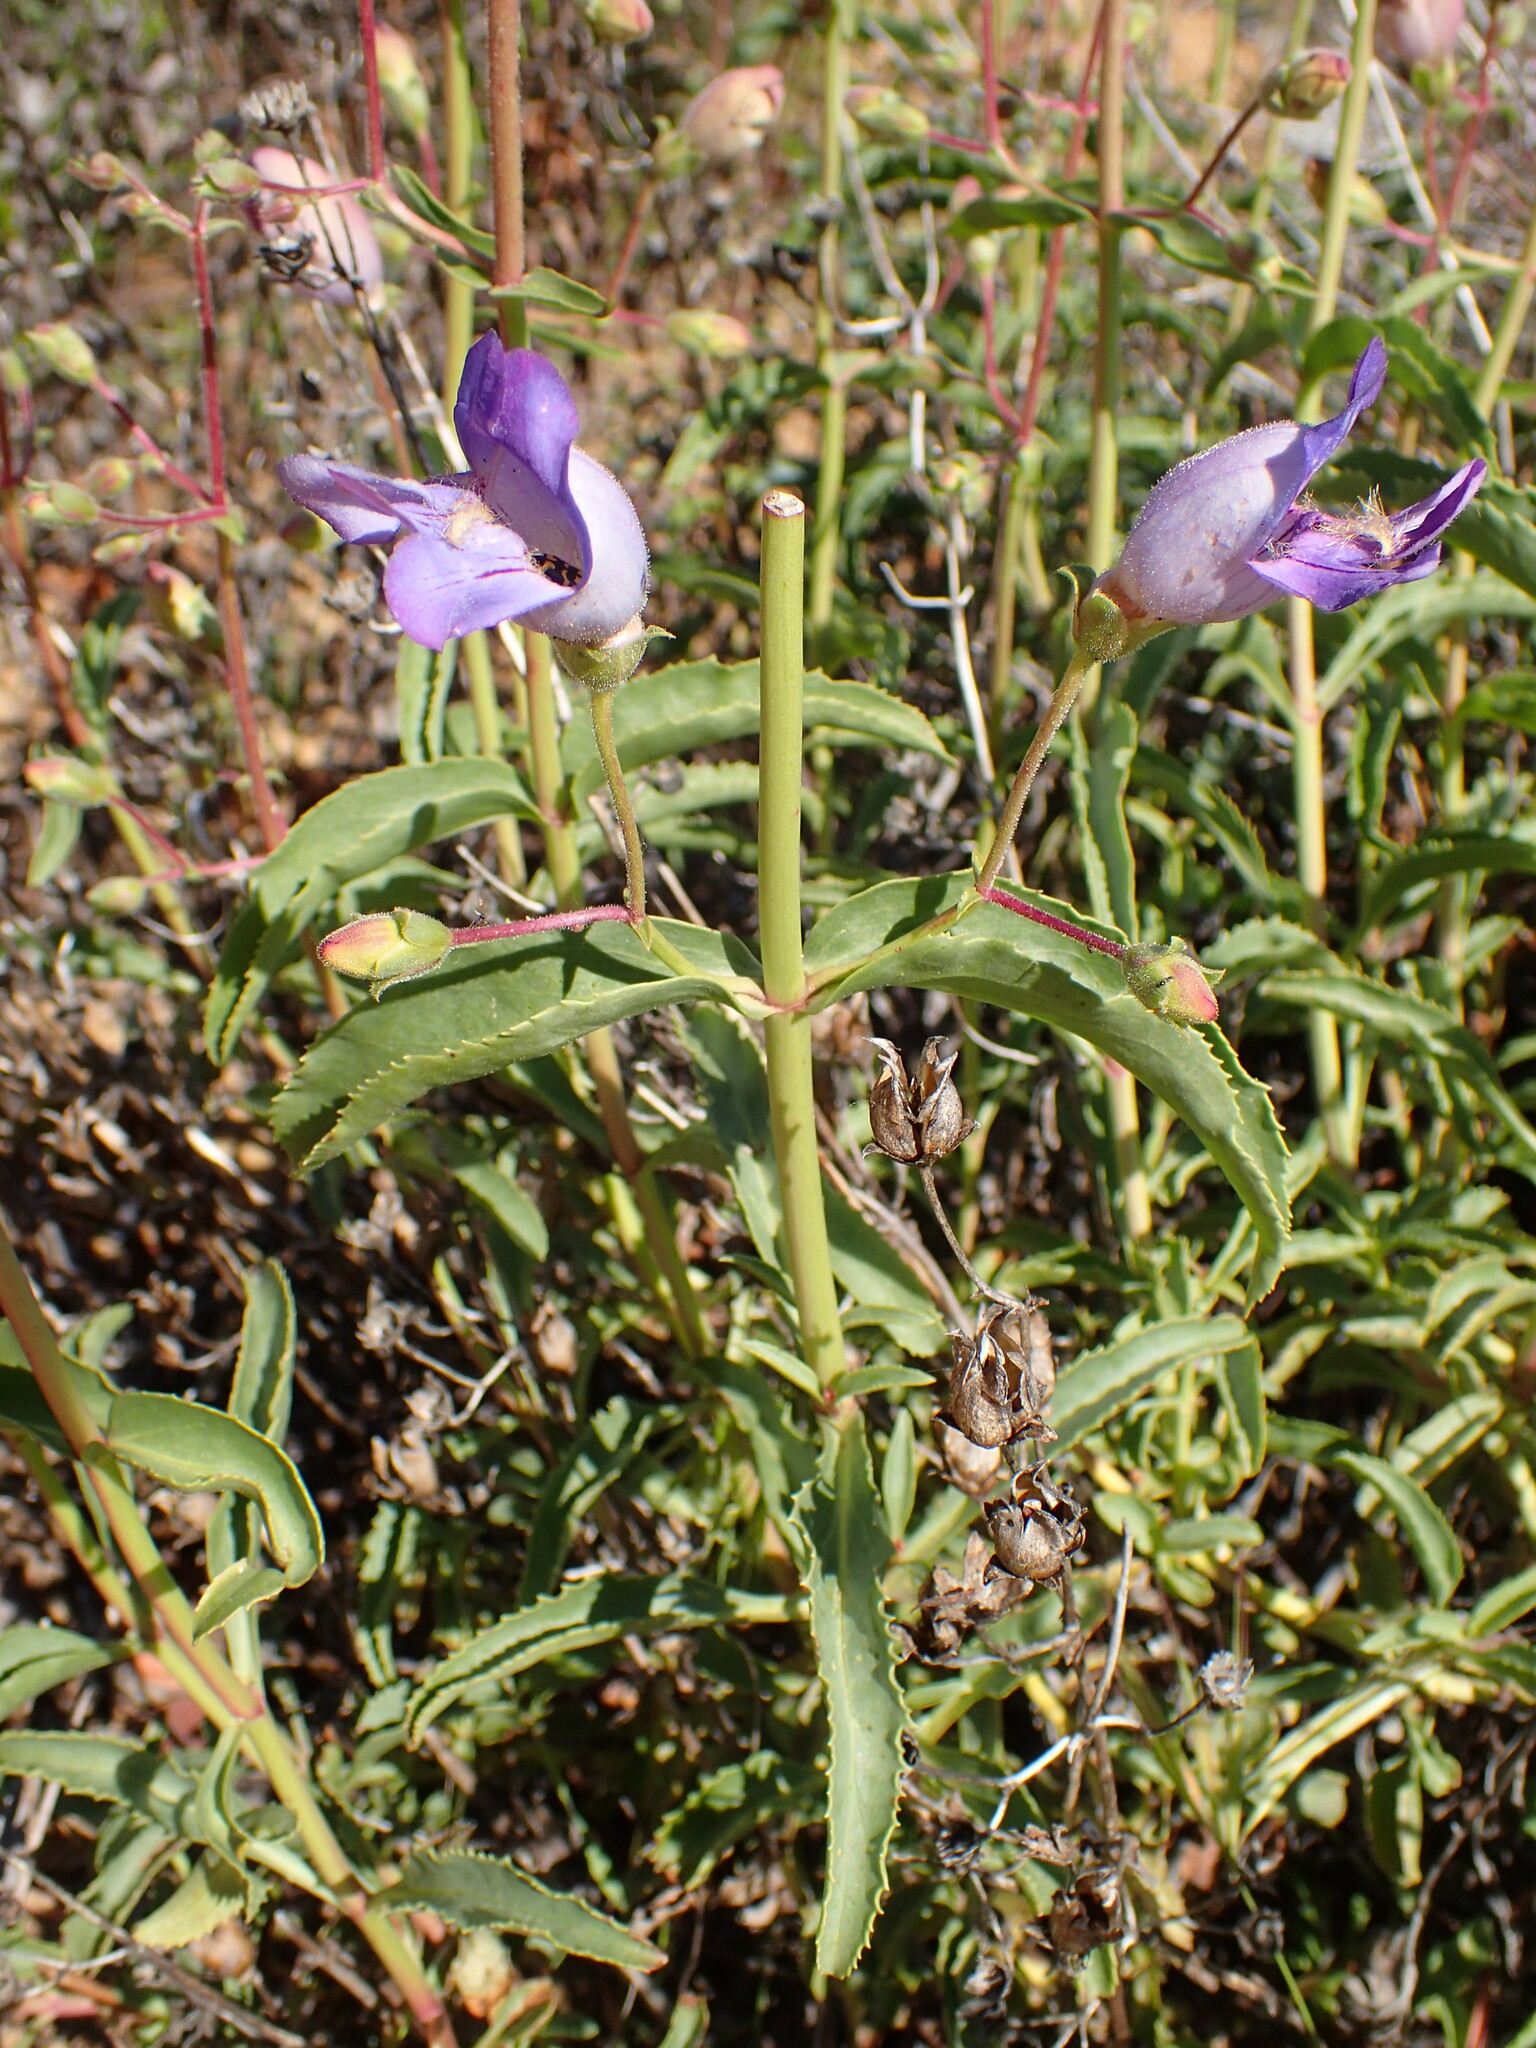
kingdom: Plantae
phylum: Tracheophyta
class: Magnoliopsida
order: Lamiales
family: Plantaginaceae
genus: Penstemon
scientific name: Penstemon grinnellii
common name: Grinnell's beardtongue
